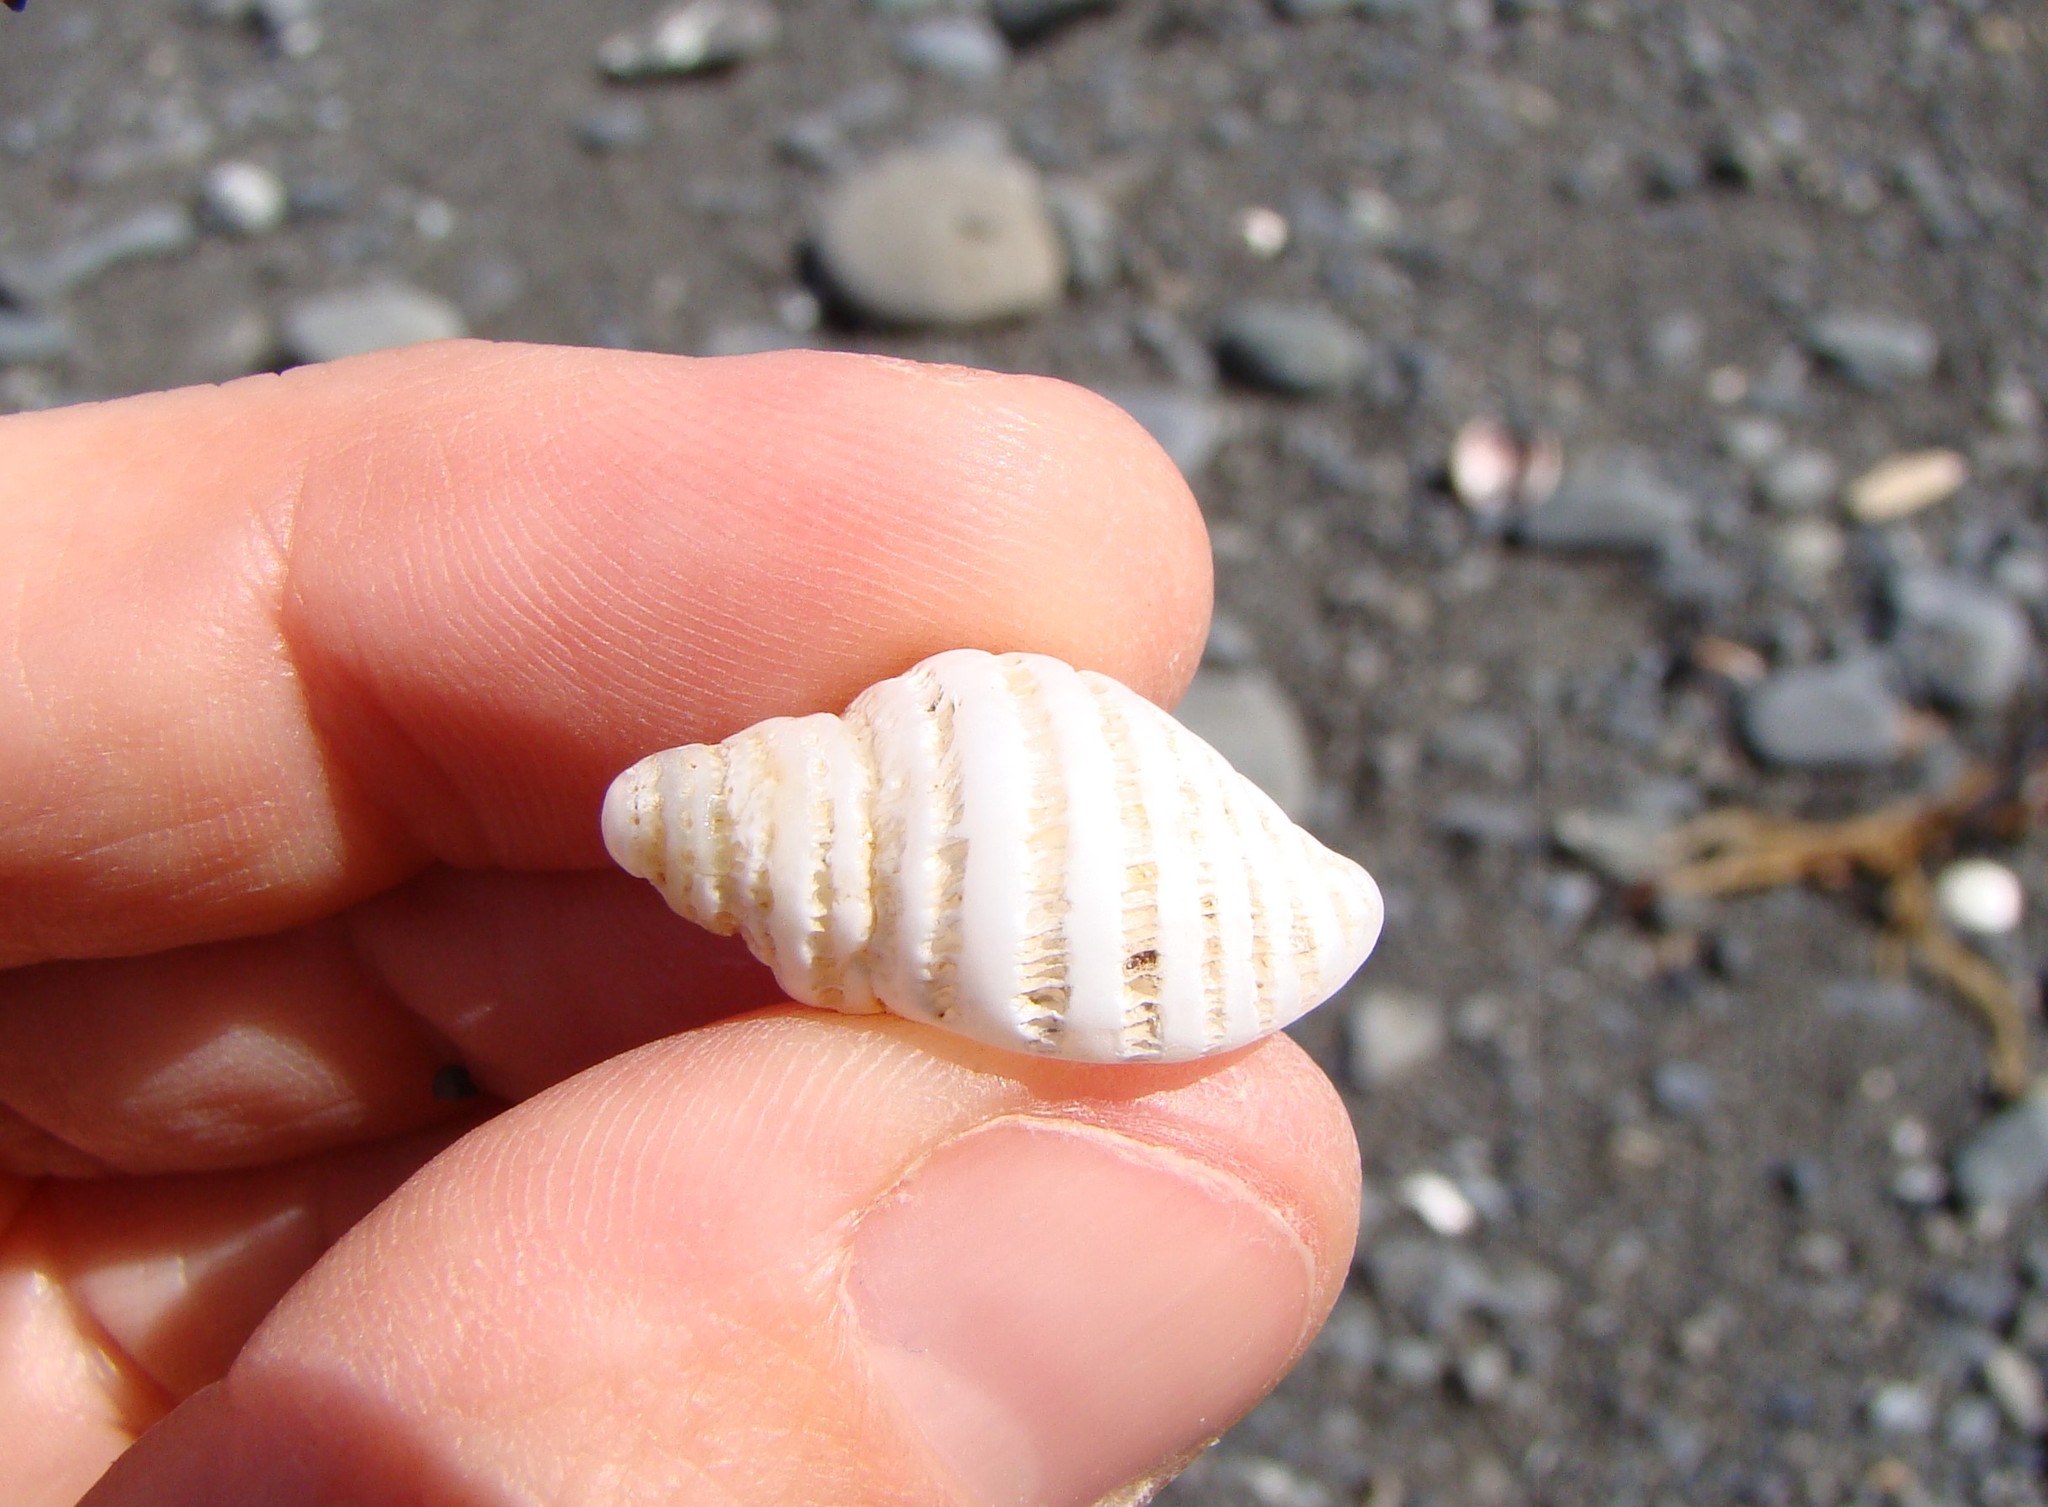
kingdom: Animalia
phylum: Mollusca
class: Gastropoda
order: Neogastropoda
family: Muricidae
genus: Haustrum
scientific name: Haustrum lacunosum
